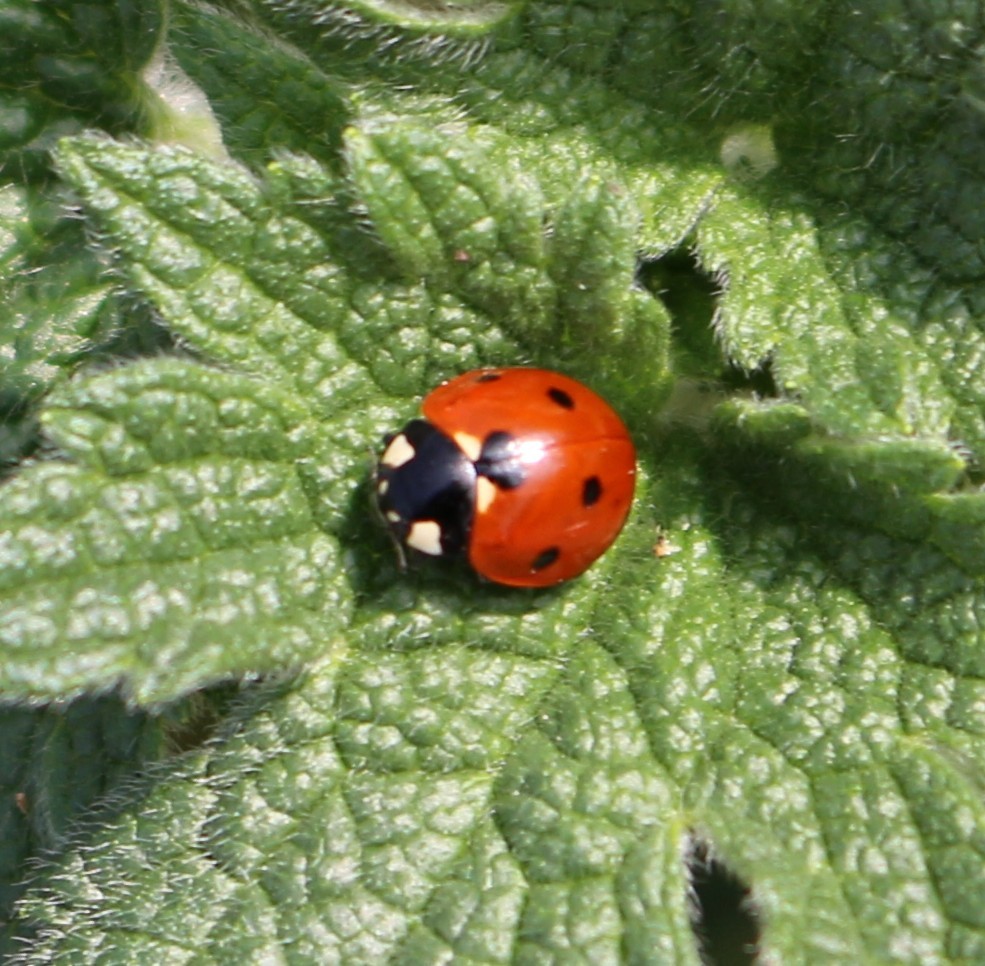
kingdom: Animalia
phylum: Arthropoda
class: Insecta
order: Coleoptera
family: Coccinellidae
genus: Coccinella
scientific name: Coccinella septempunctata
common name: Sevenspotted lady beetle
